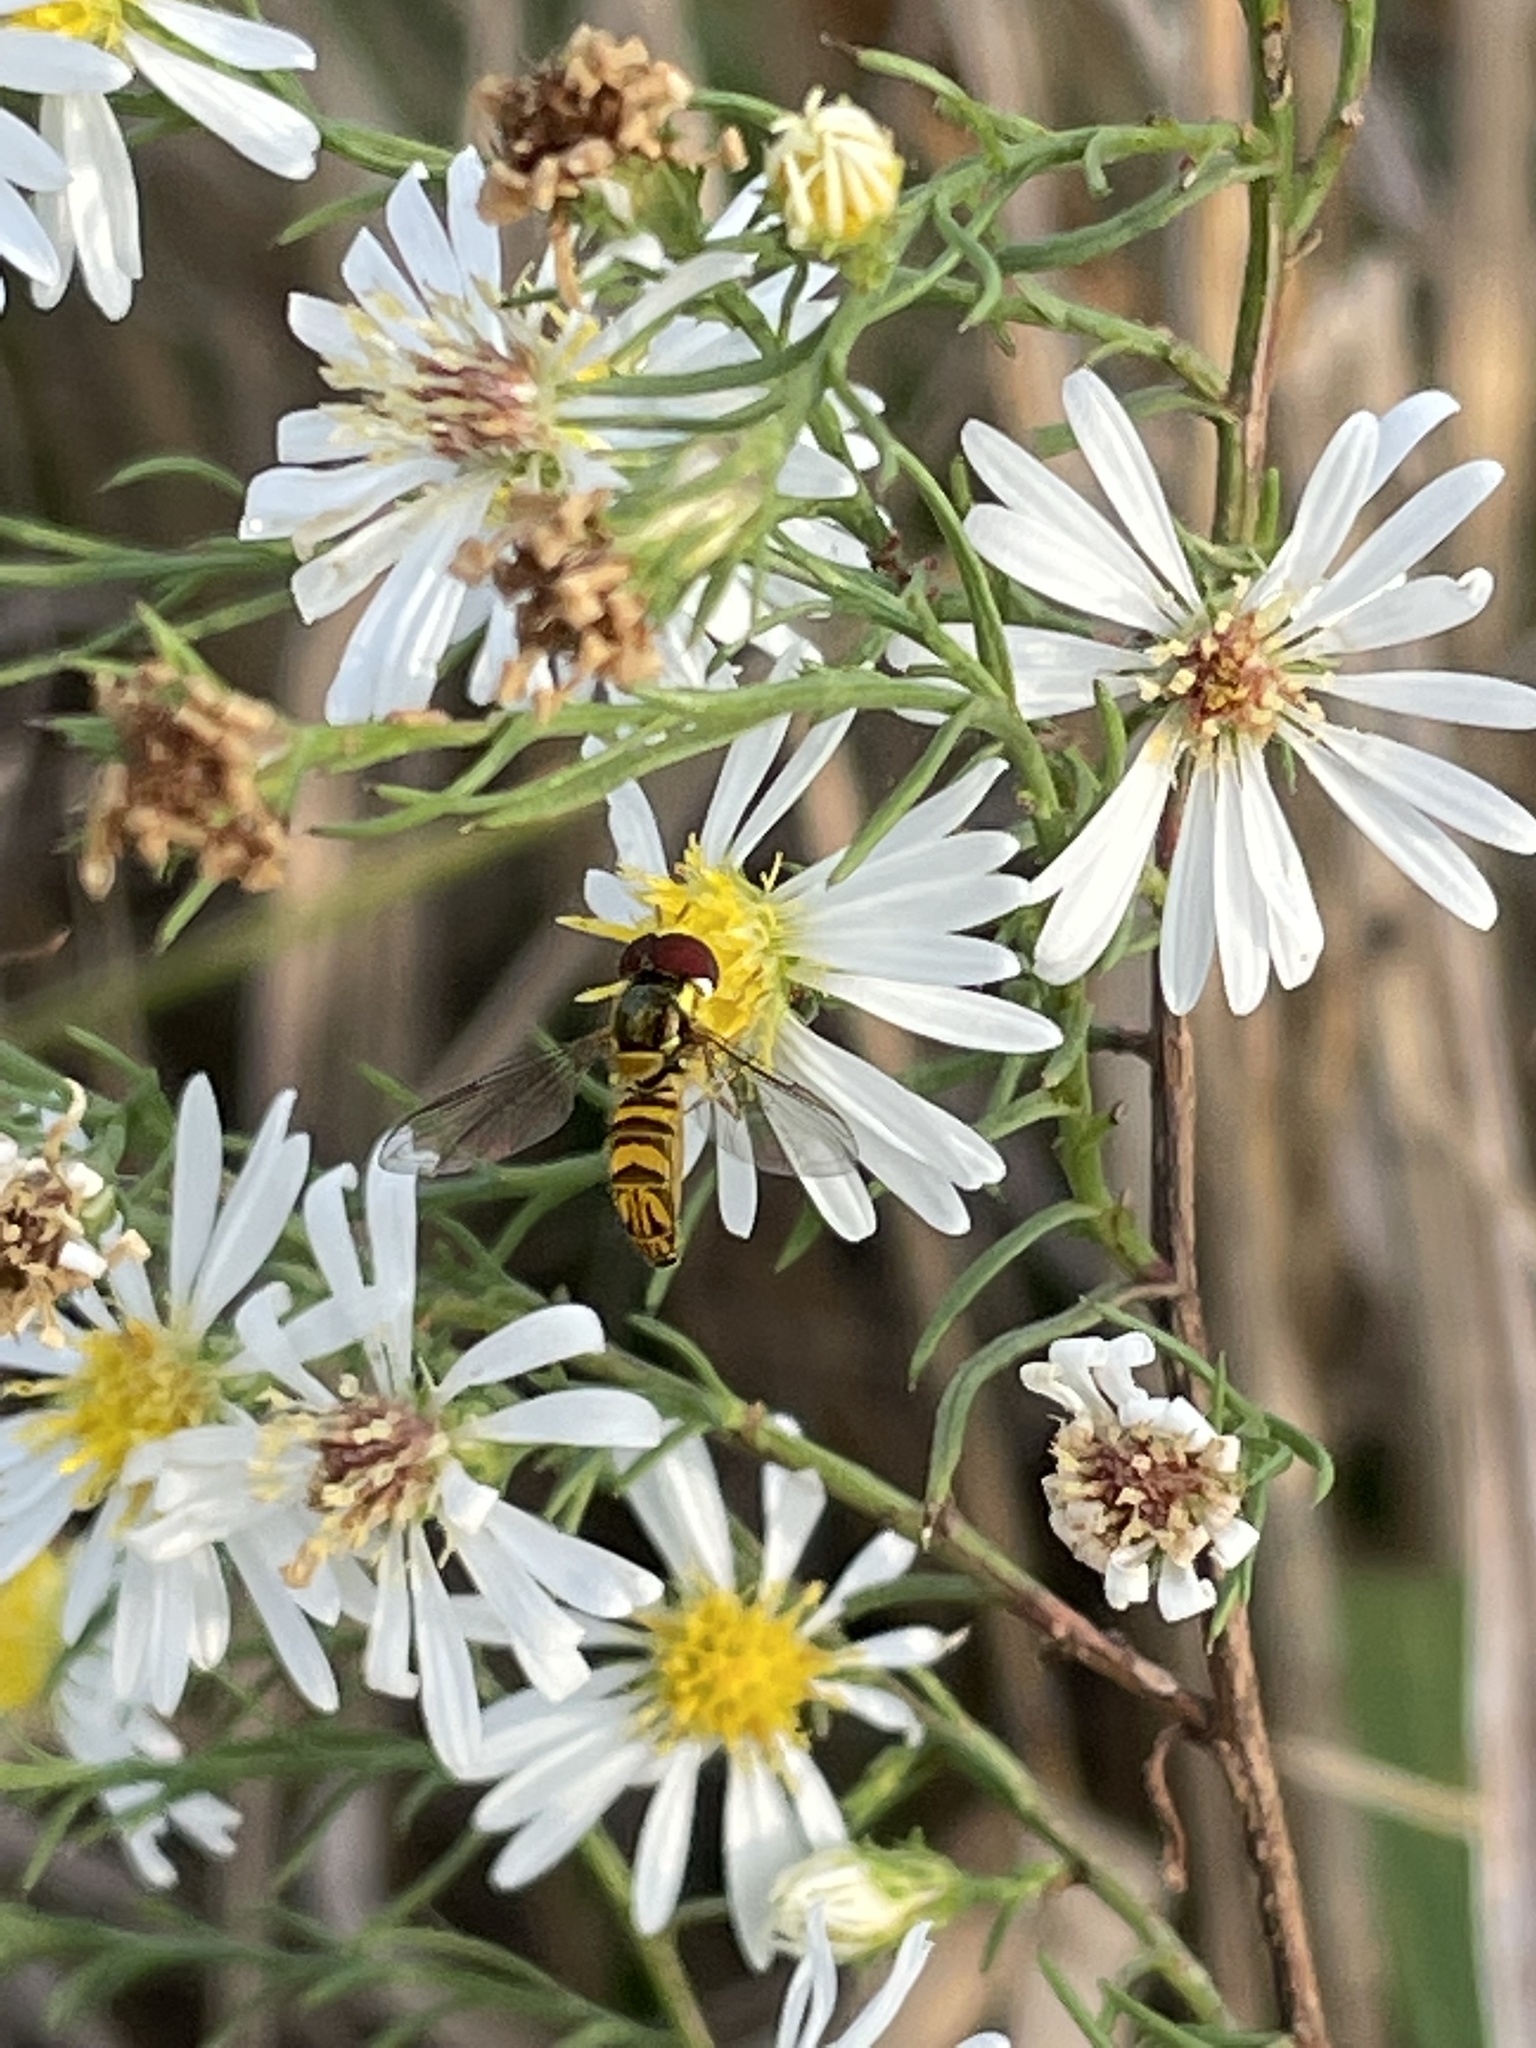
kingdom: Animalia
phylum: Arthropoda
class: Insecta
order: Diptera
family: Syrphidae
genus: Allograpta
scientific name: Allograpta obliqua
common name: Common oblique syrphid
